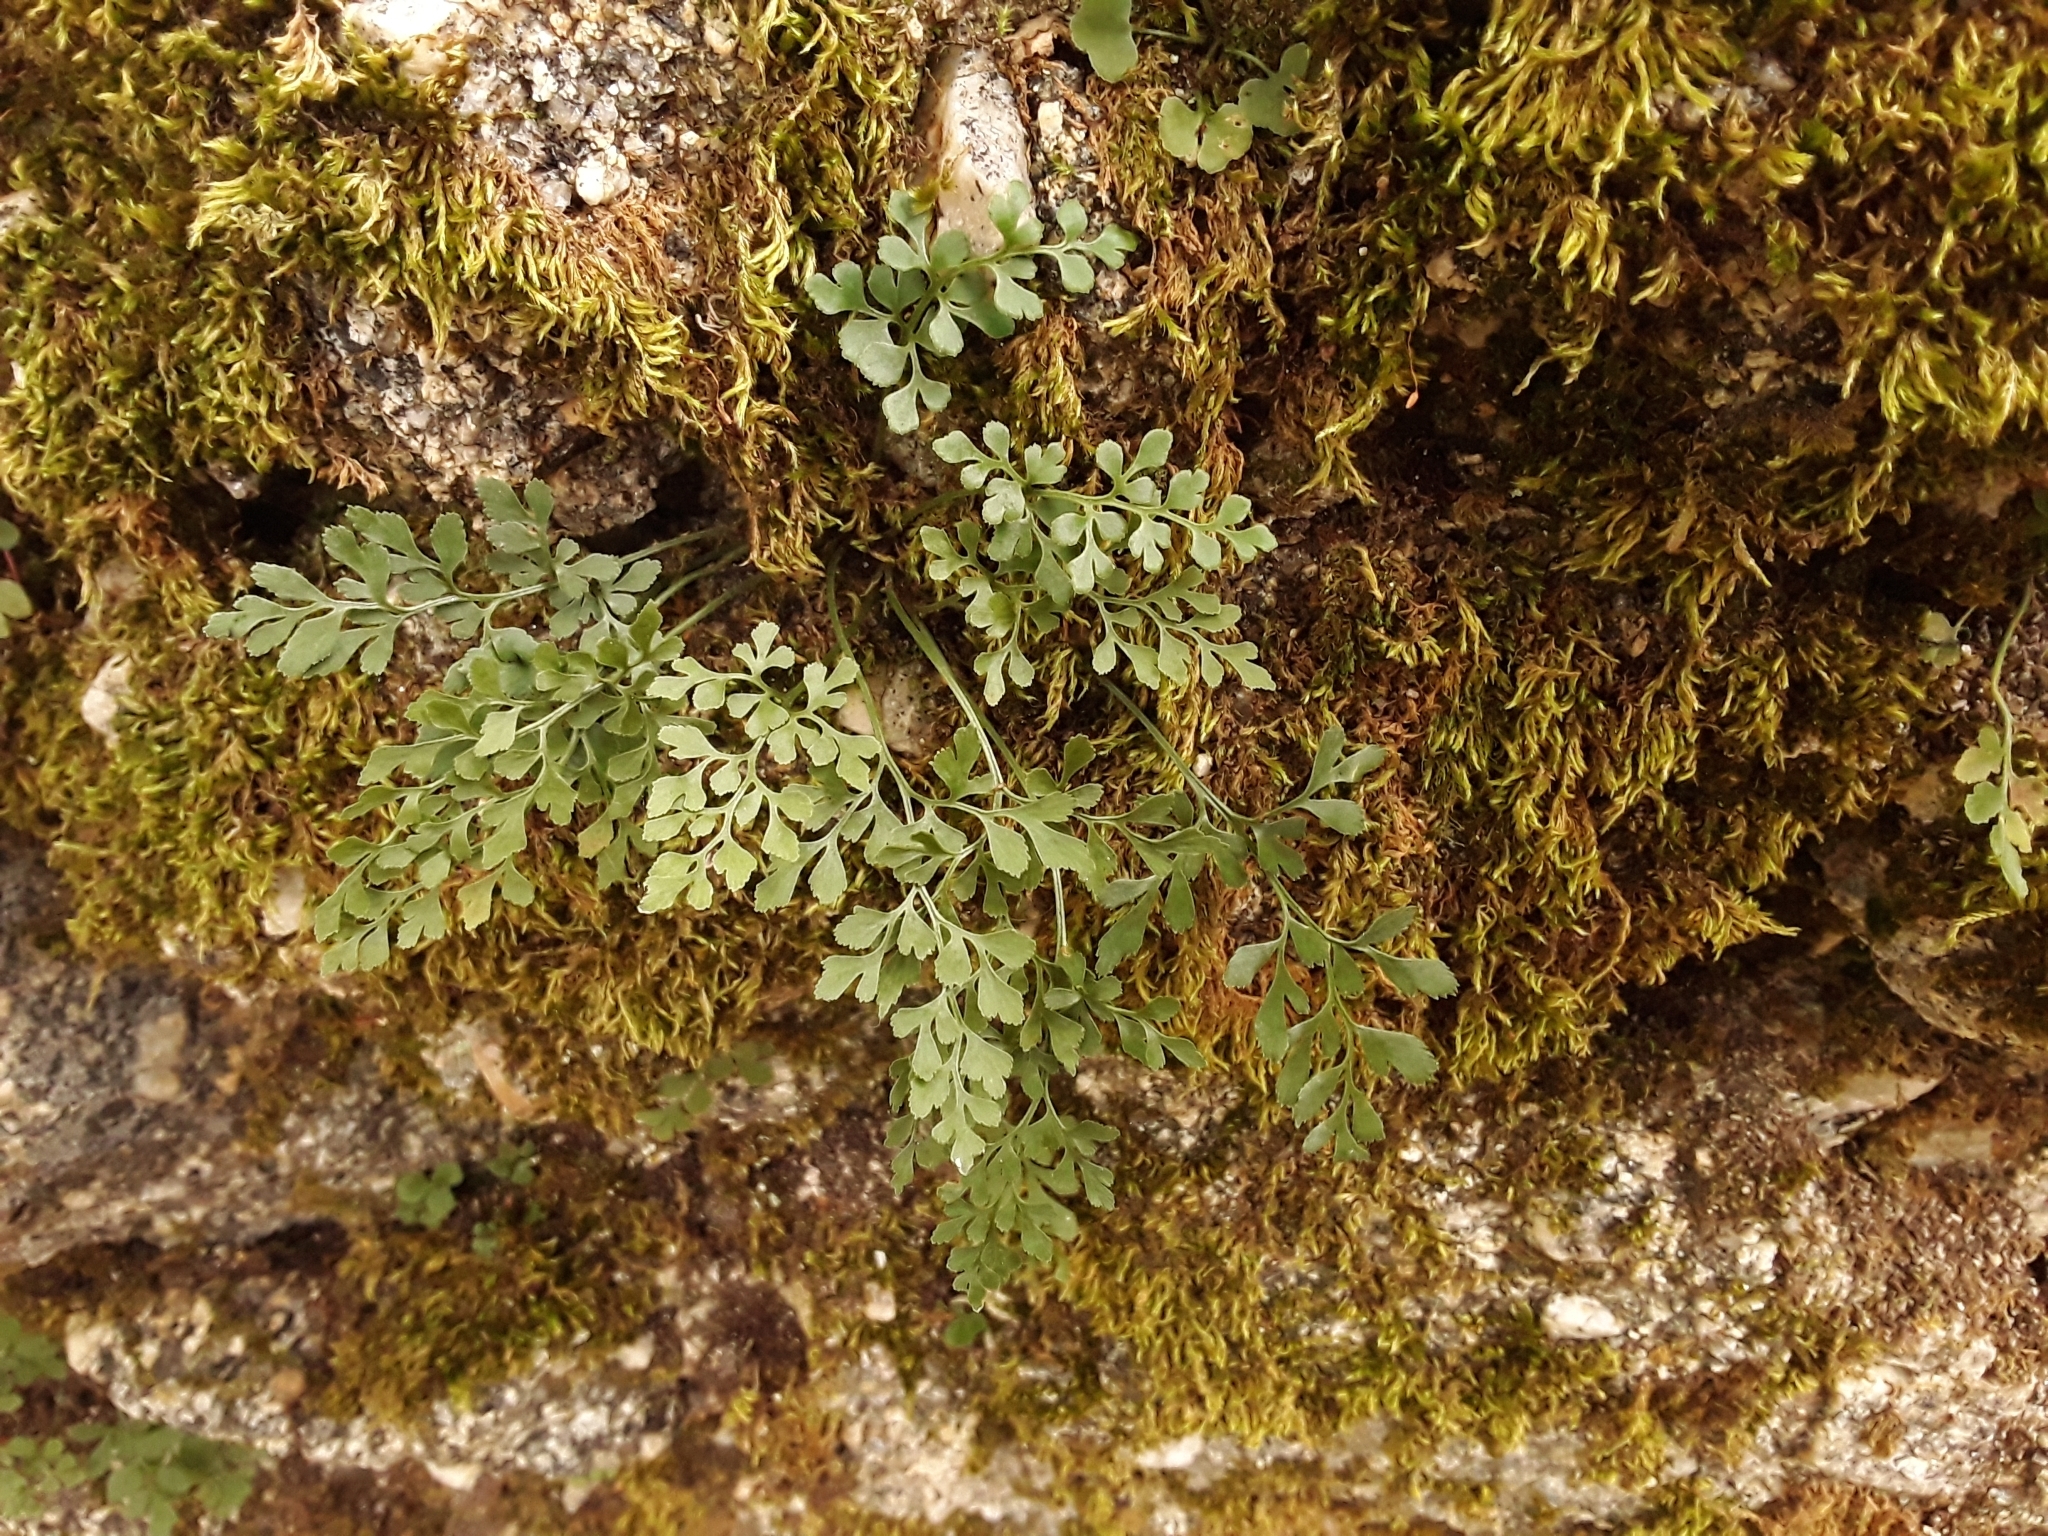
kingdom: Plantae
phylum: Tracheophyta
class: Polypodiopsida
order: Polypodiales
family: Aspleniaceae
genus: Asplenium
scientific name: Asplenium ruta-muraria
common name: Wall-rue
